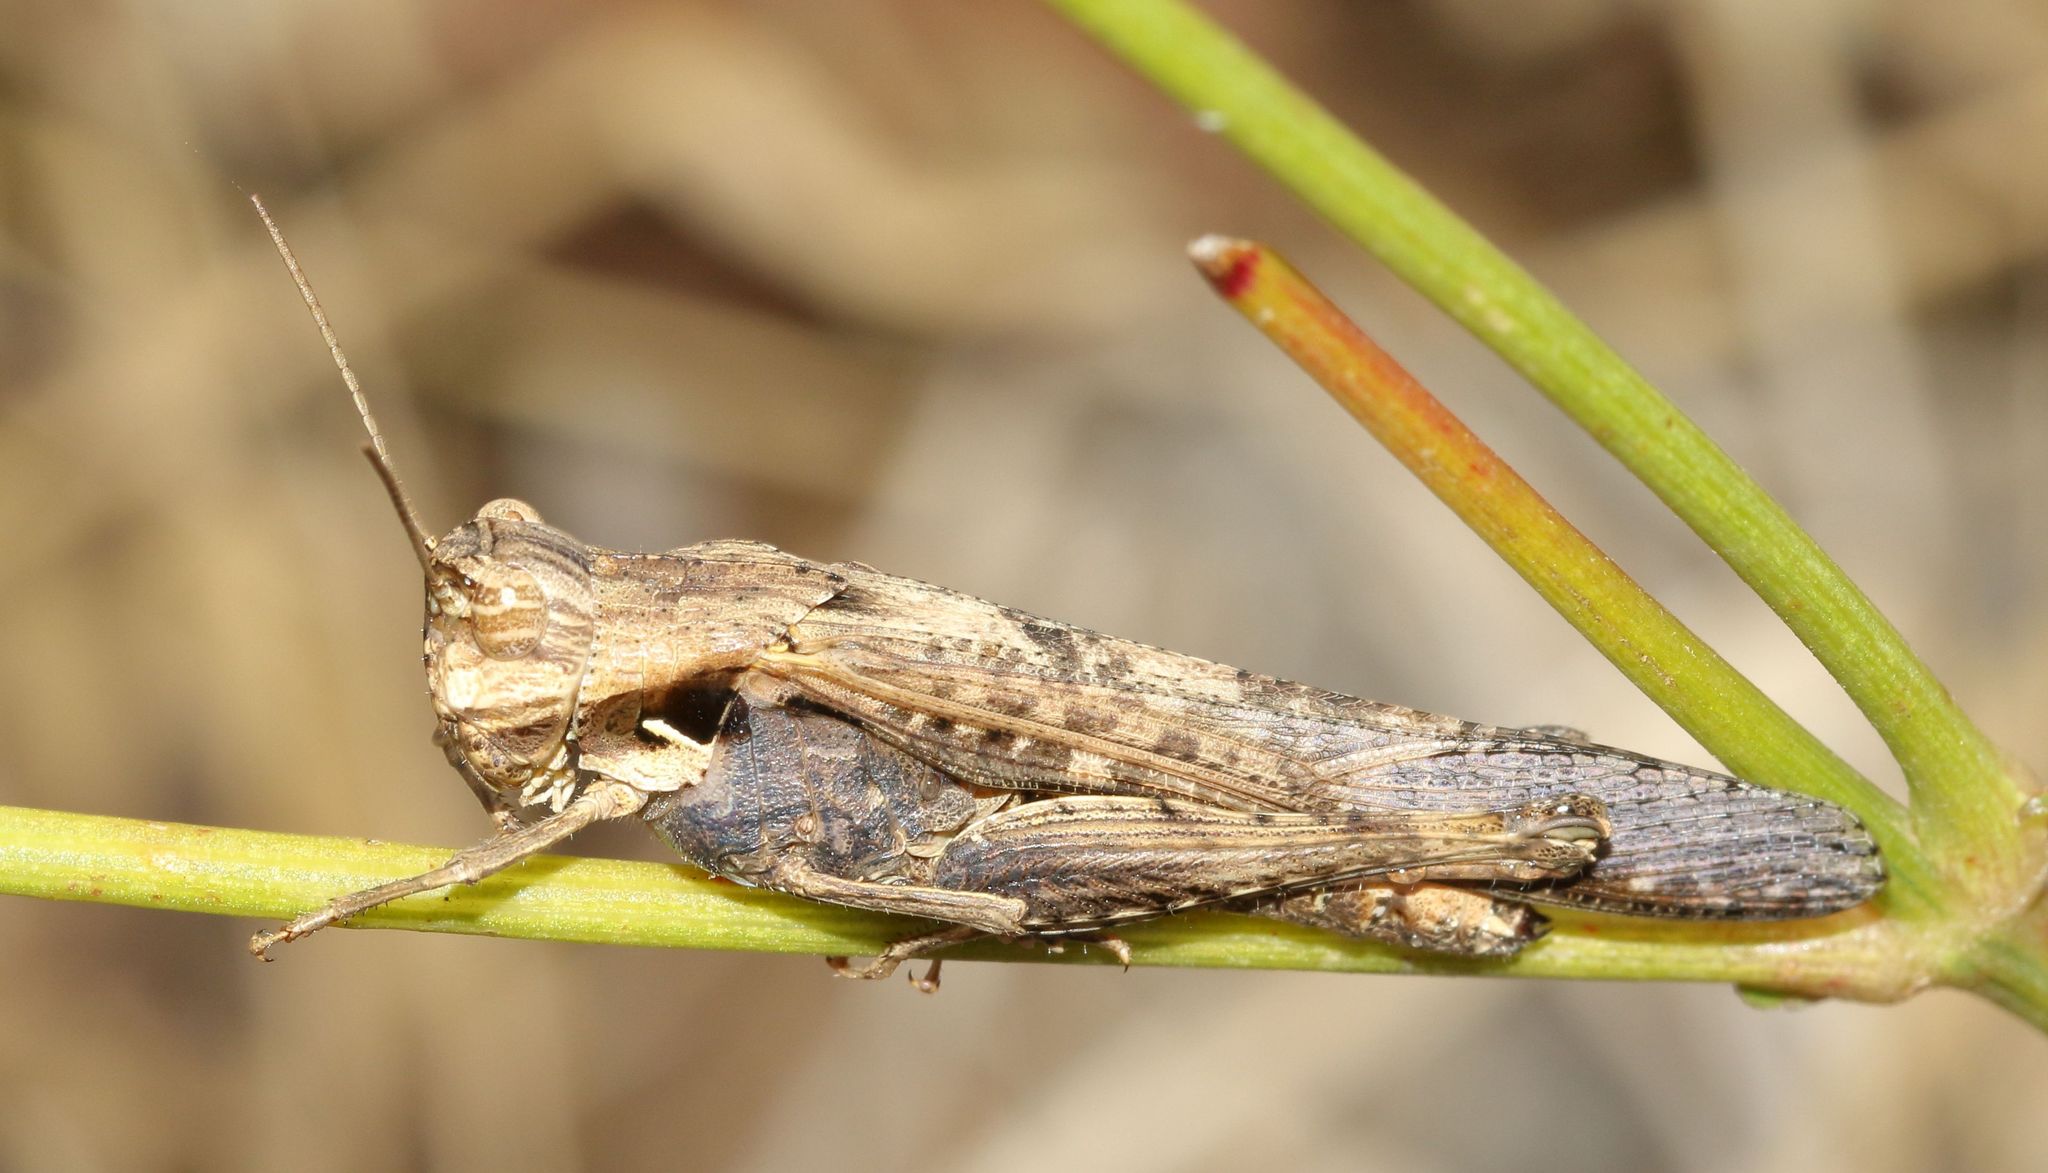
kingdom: Animalia
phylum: Arthropoda
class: Insecta
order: Orthoptera
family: Acrididae
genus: Morphacris
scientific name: Morphacris fasciata
